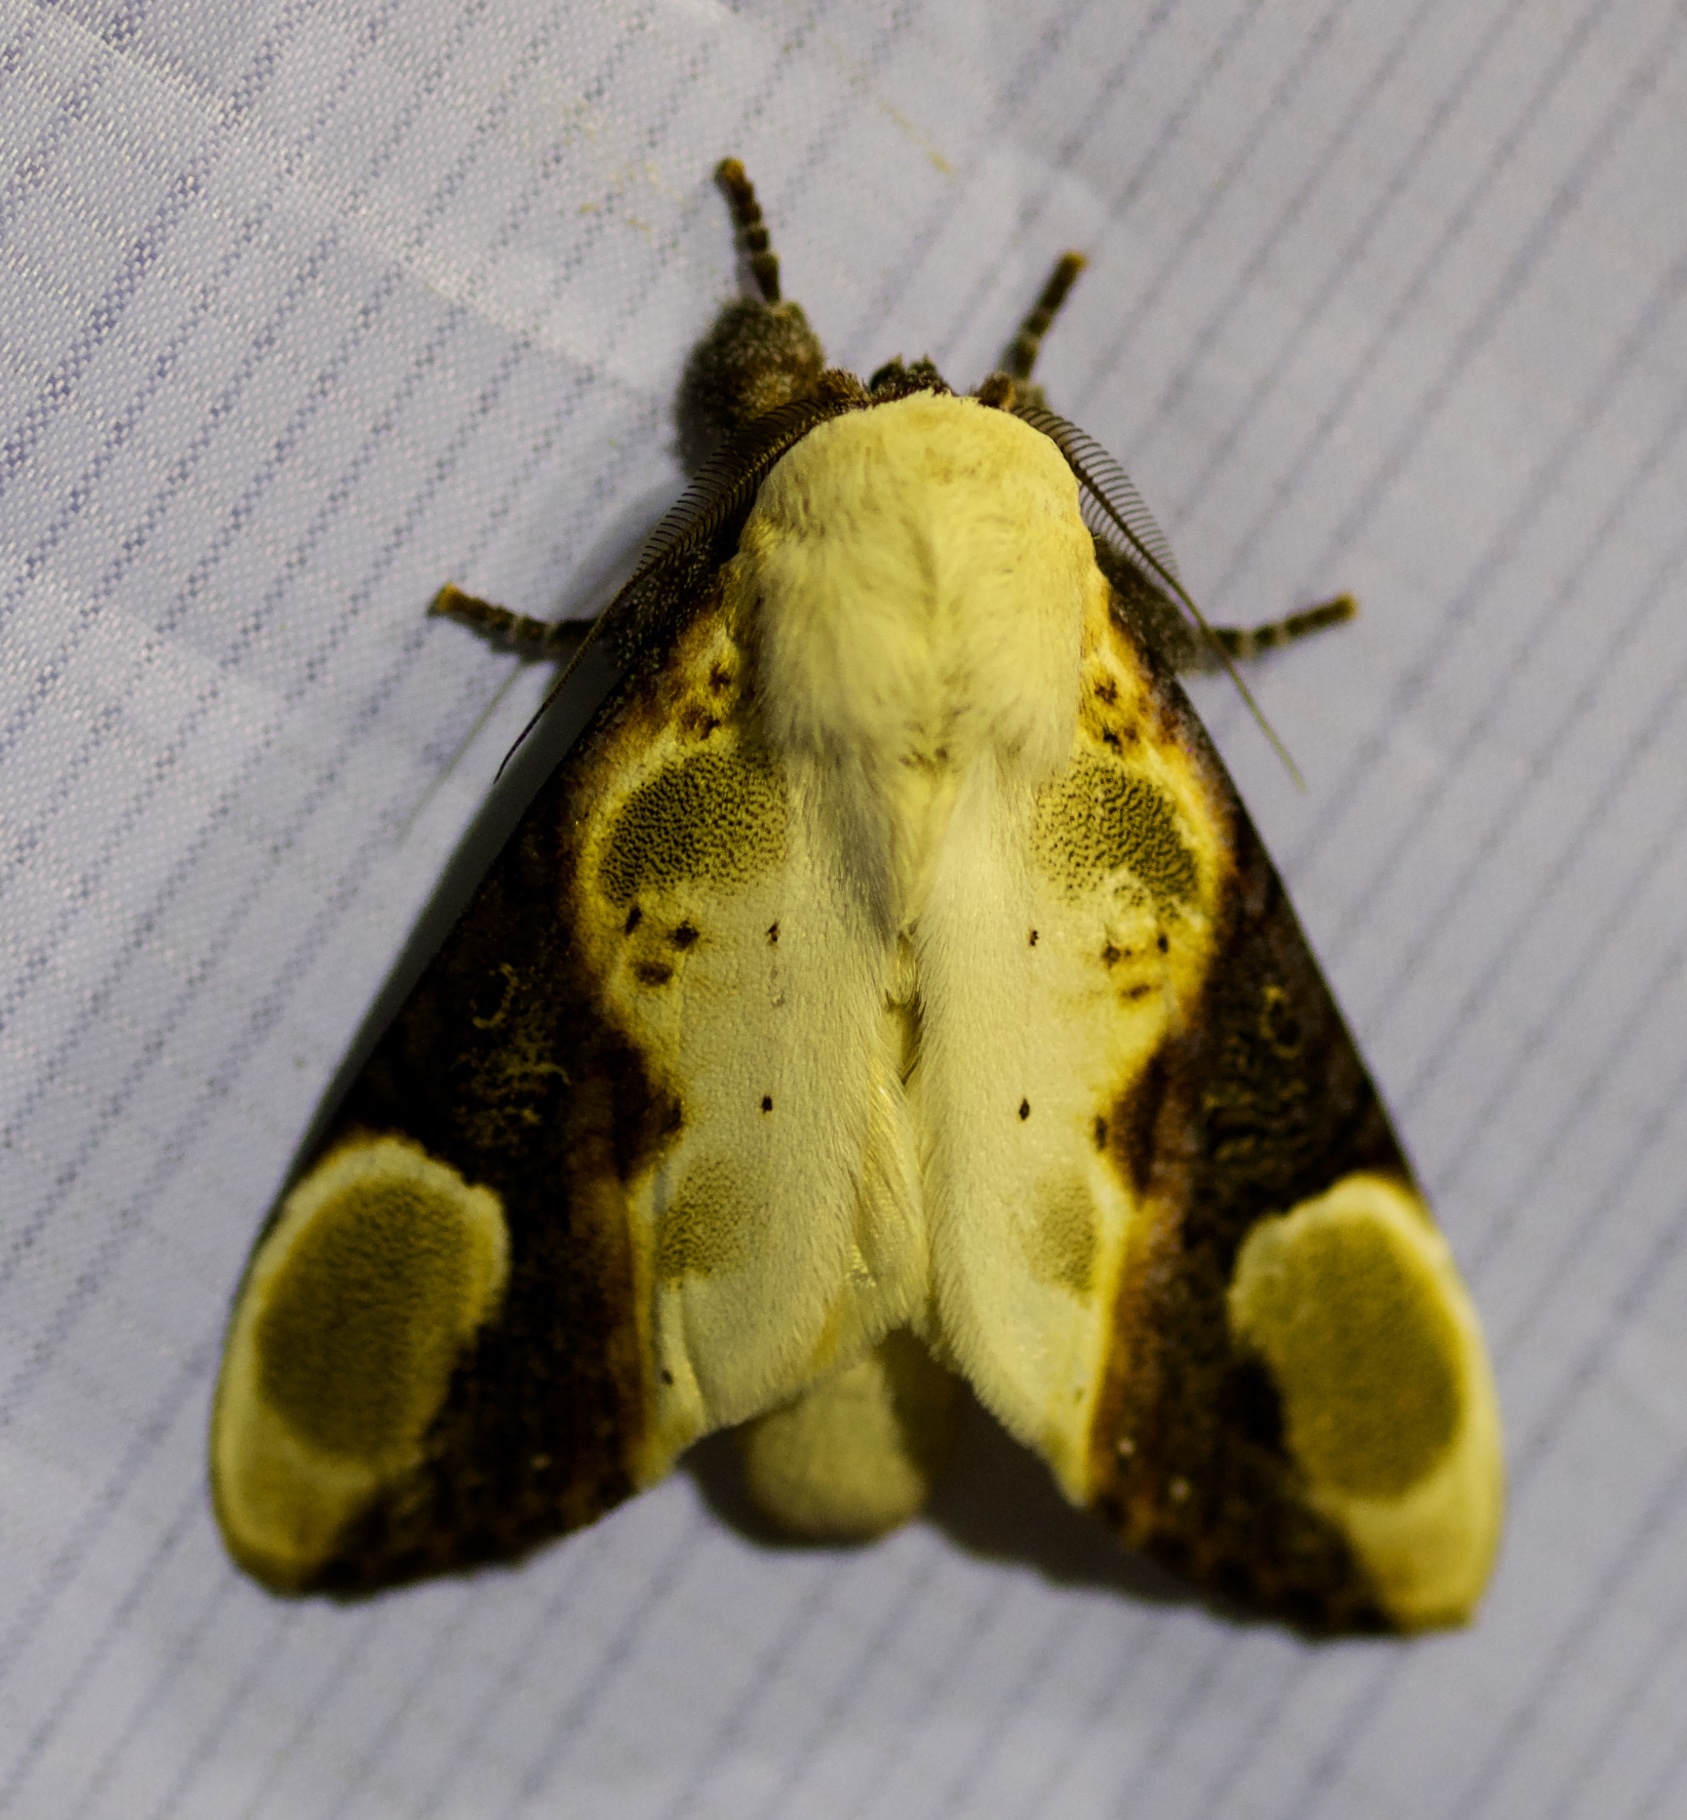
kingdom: Animalia
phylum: Arthropoda
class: Insecta
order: Lepidoptera
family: Notodontidae
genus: Formofentonia
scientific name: Formofentonia orbifer
